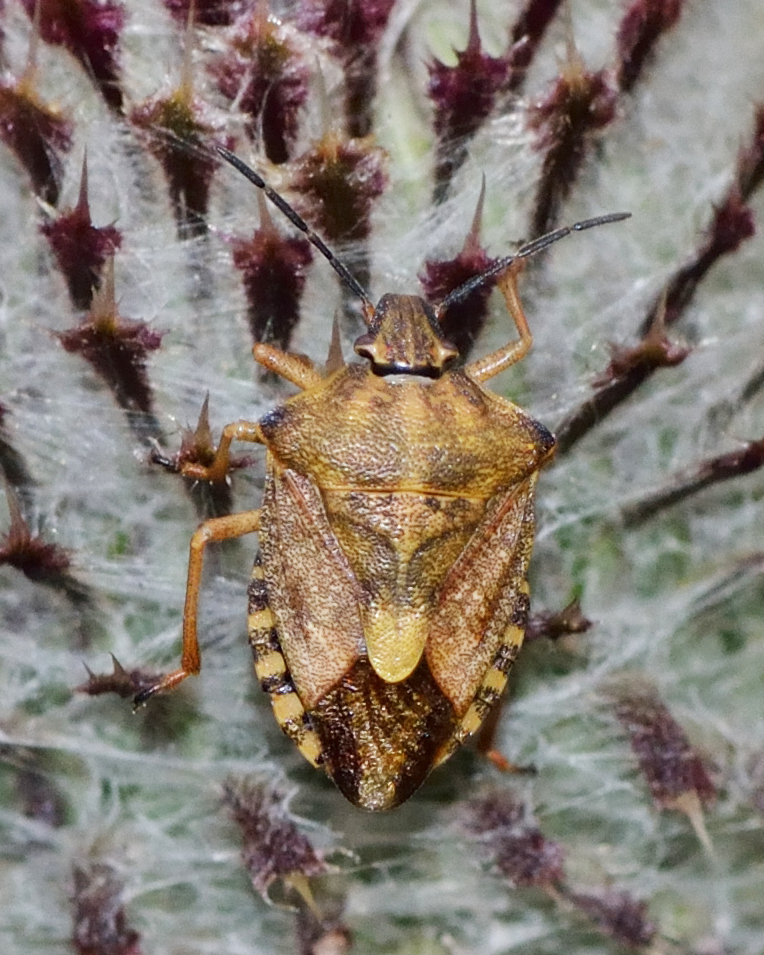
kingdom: Animalia
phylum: Arthropoda
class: Insecta
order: Hemiptera
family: Pentatomidae
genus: Carpocoris
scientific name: Carpocoris purpureipennis
